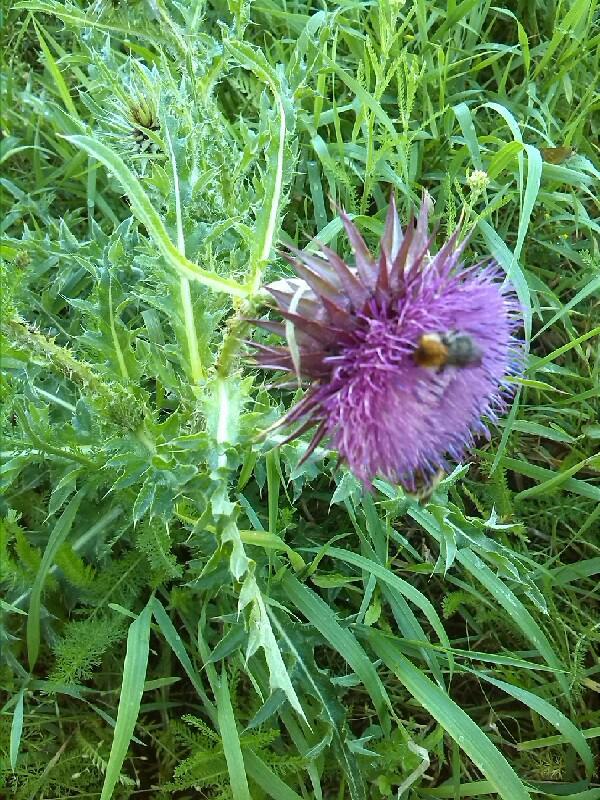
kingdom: Plantae
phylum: Tracheophyta
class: Magnoliopsida
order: Asterales
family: Asteraceae
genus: Carduus
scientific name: Carduus nutans
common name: Musk thistle
